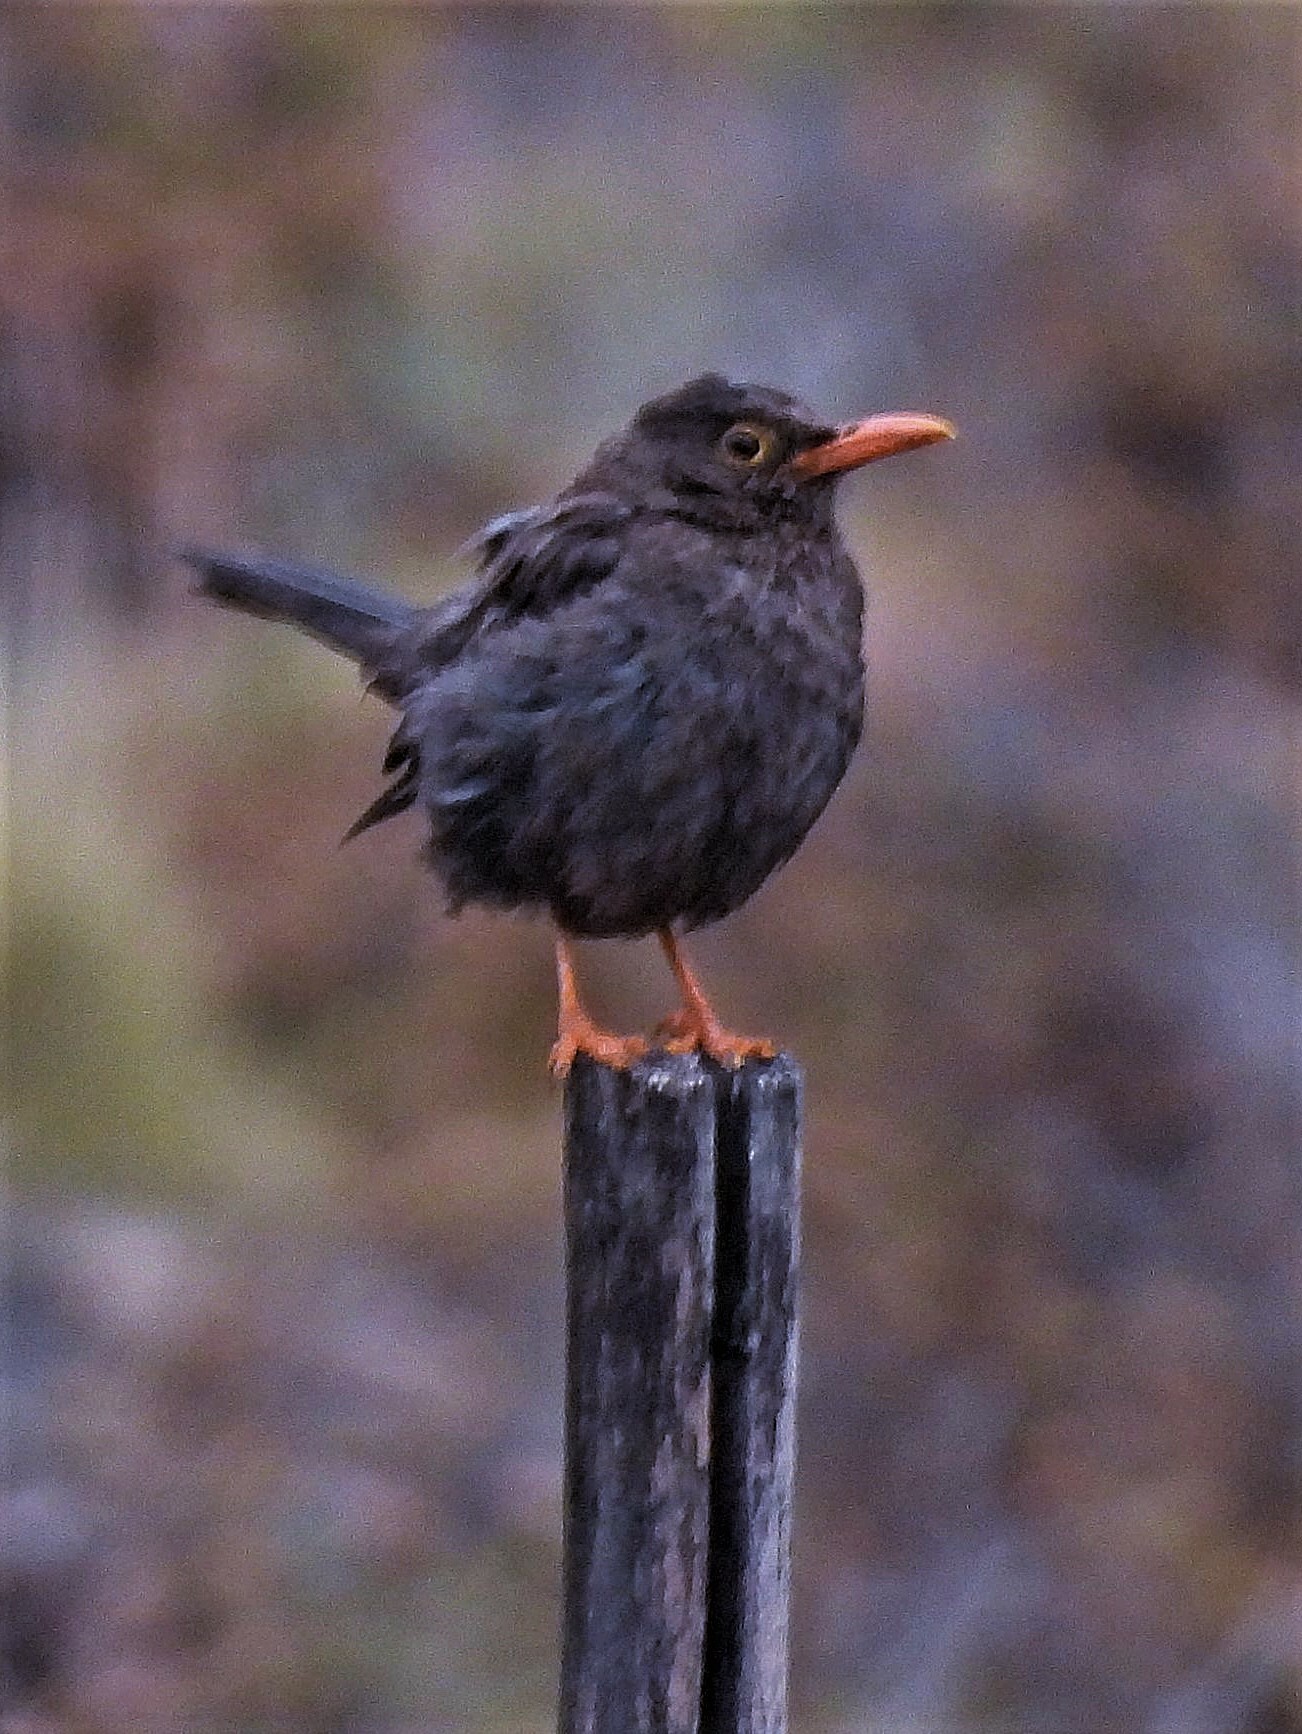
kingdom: Animalia
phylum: Chordata
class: Aves
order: Passeriformes
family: Turdidae
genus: Turdus
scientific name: Turdus chiguanco
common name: Chiguanco thrush
